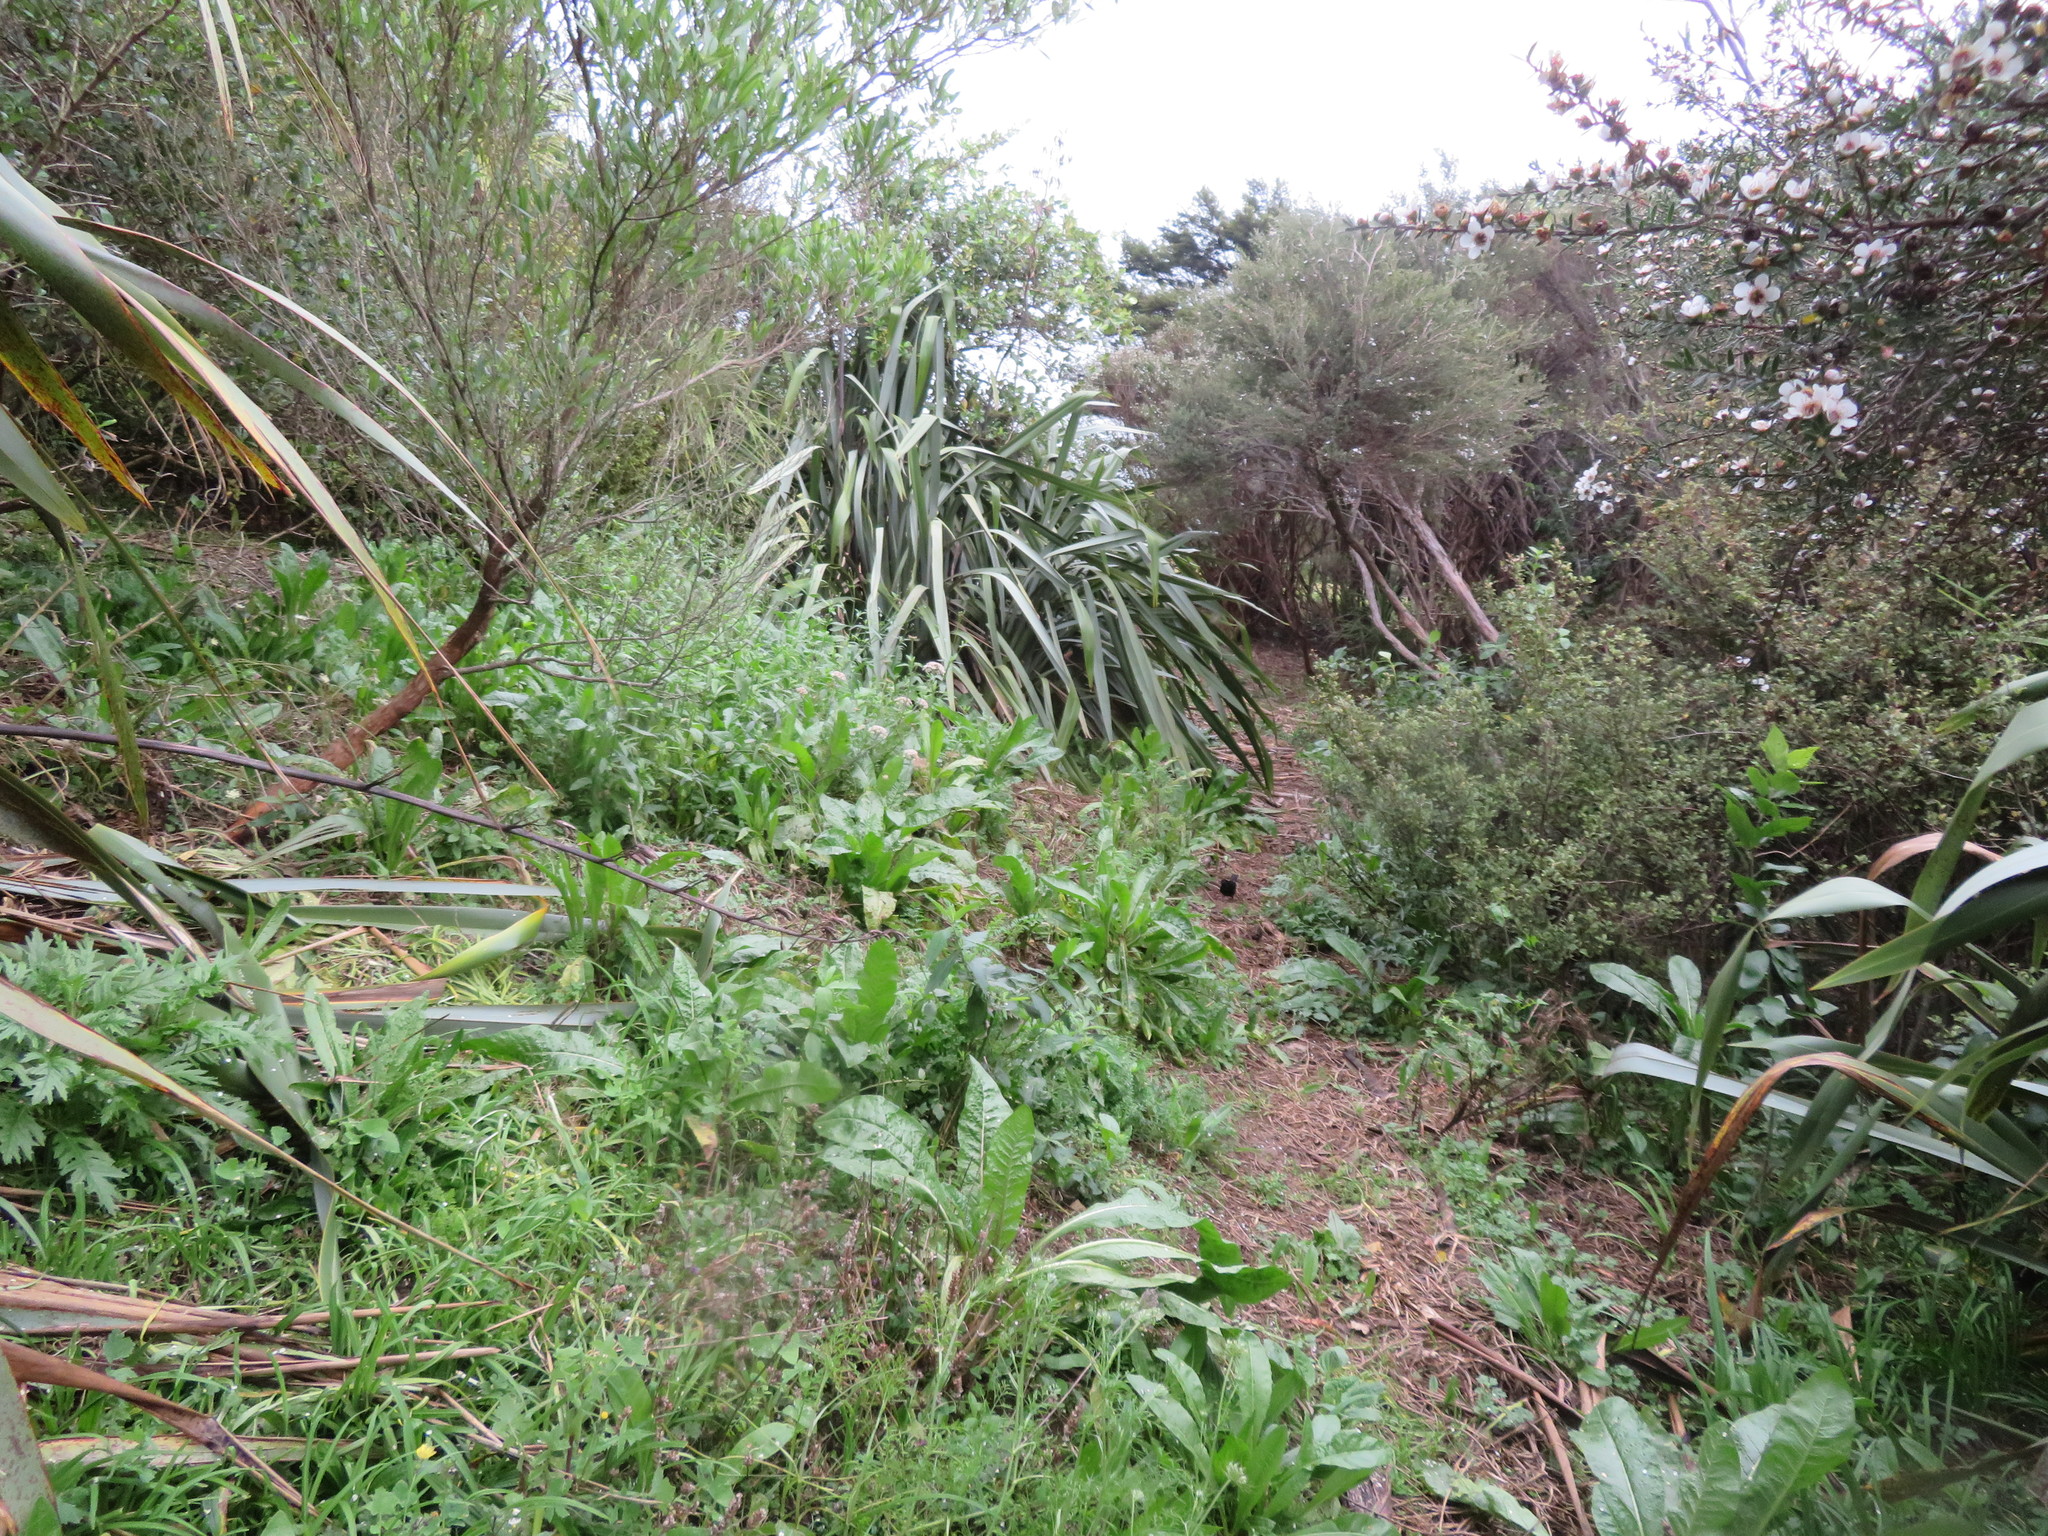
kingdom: Plantae
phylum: Tracheophyta
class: Magnoliopsida
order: Sapindales
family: Sapindaceae
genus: Dodonaea
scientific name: Dodonaea viscosa
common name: Hopbush
